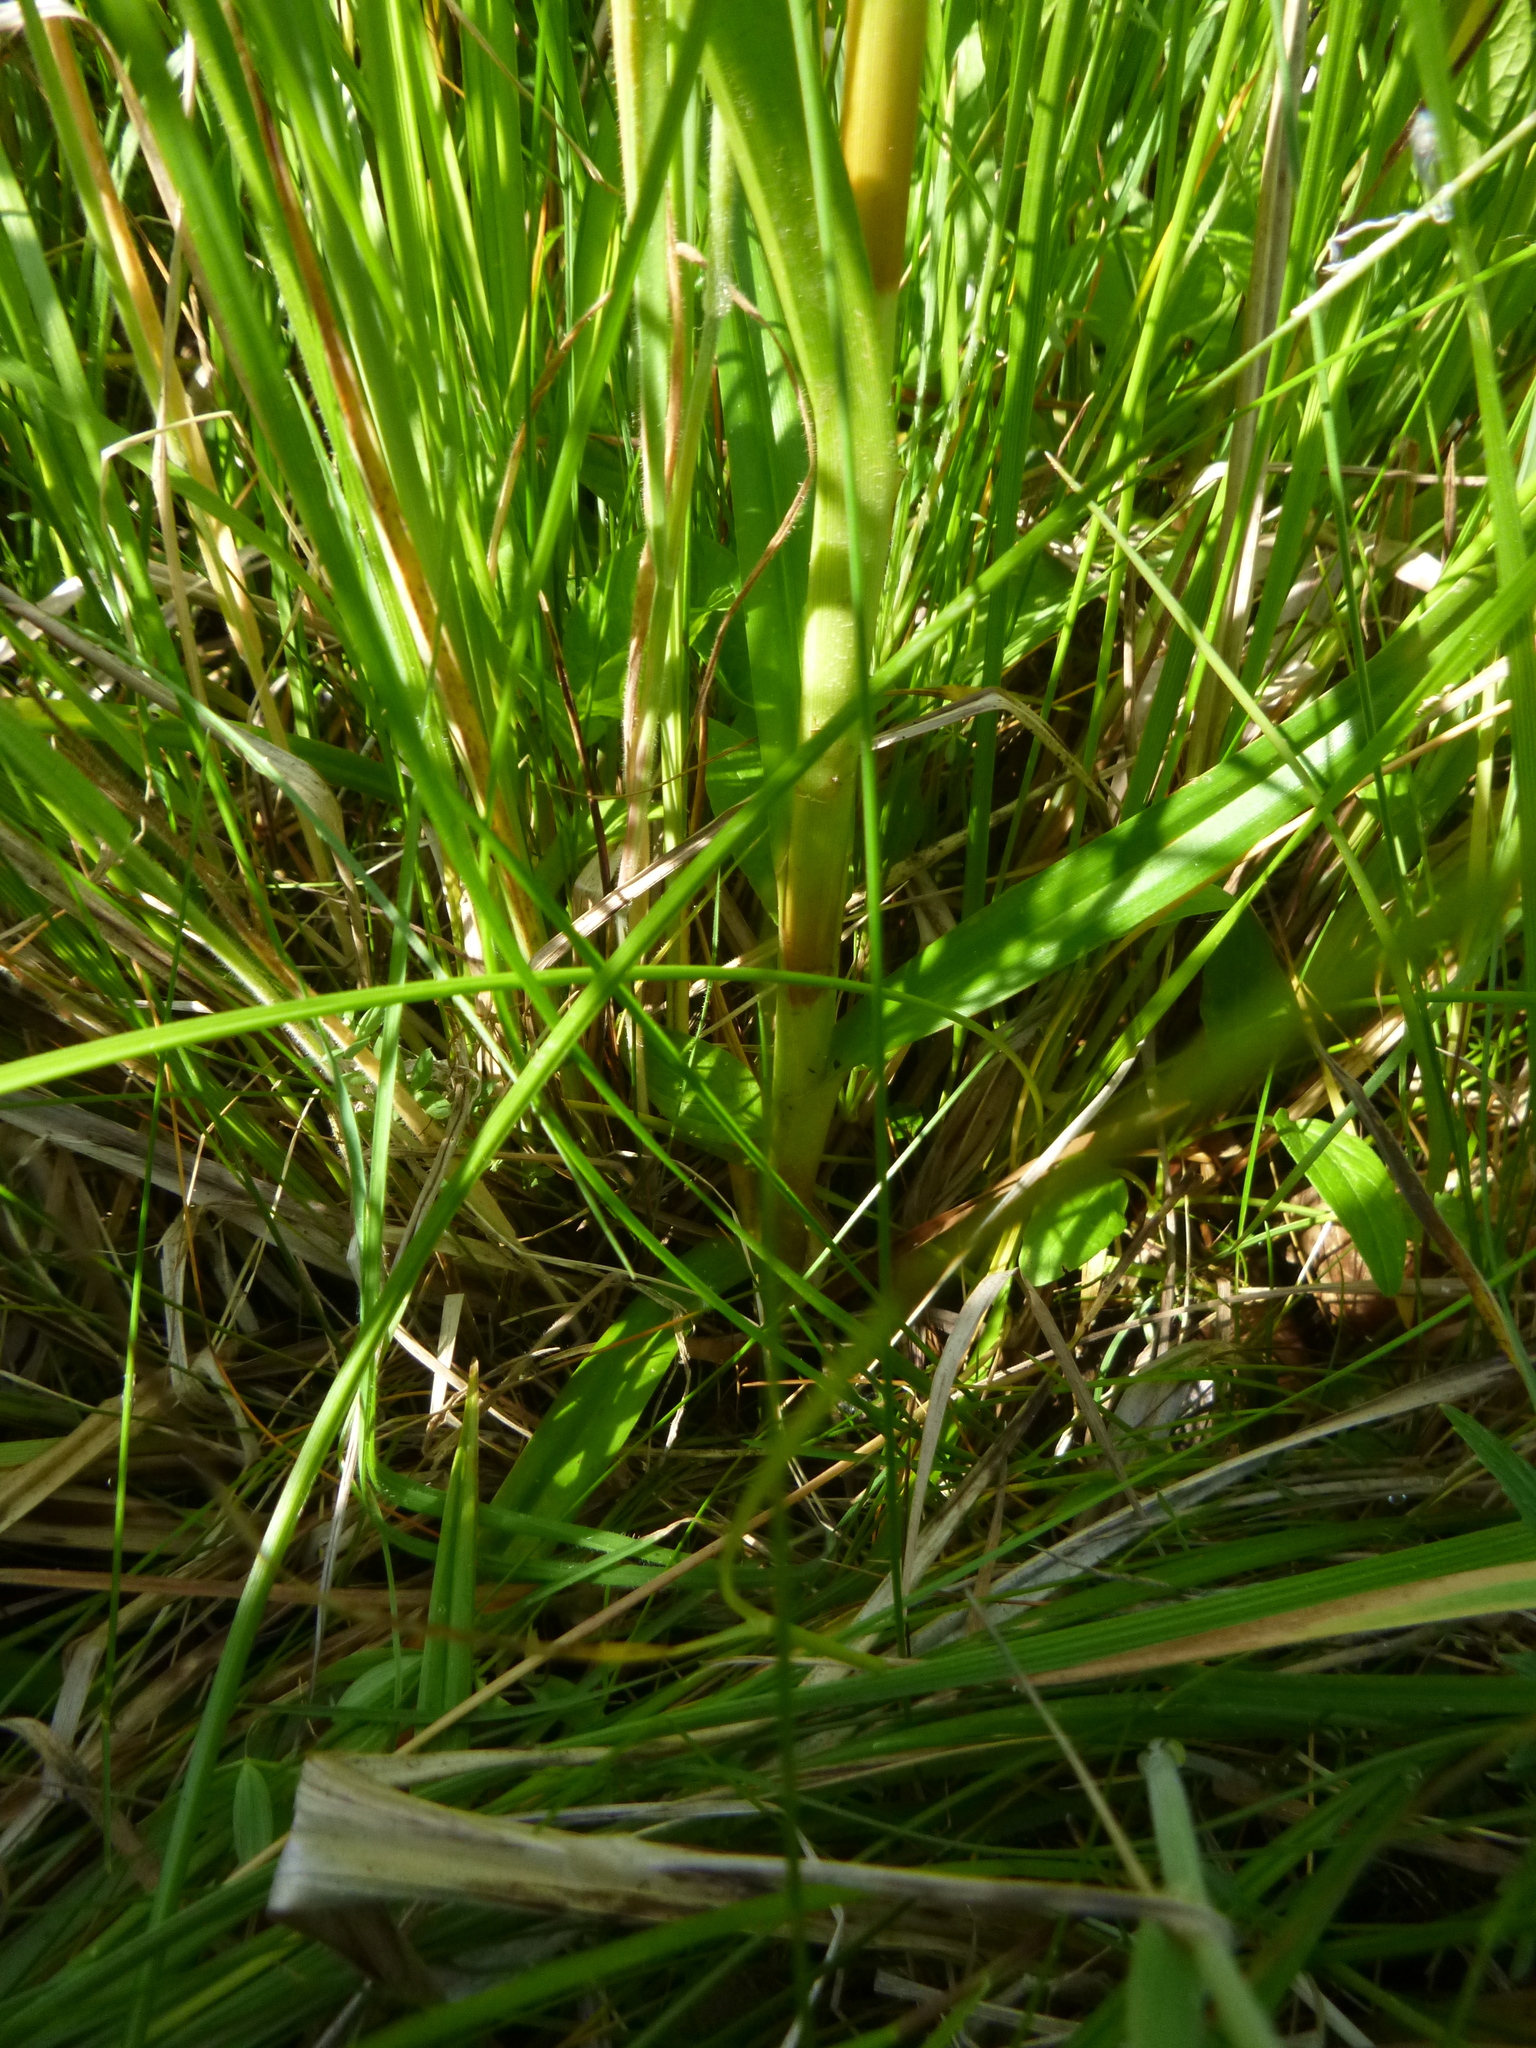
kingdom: Plantae
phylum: Tracheophyta
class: Liliopsida
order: Poales
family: Cyperaceae
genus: Scirpus
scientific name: Scirpus sylvaticus
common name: Wood club-rush
